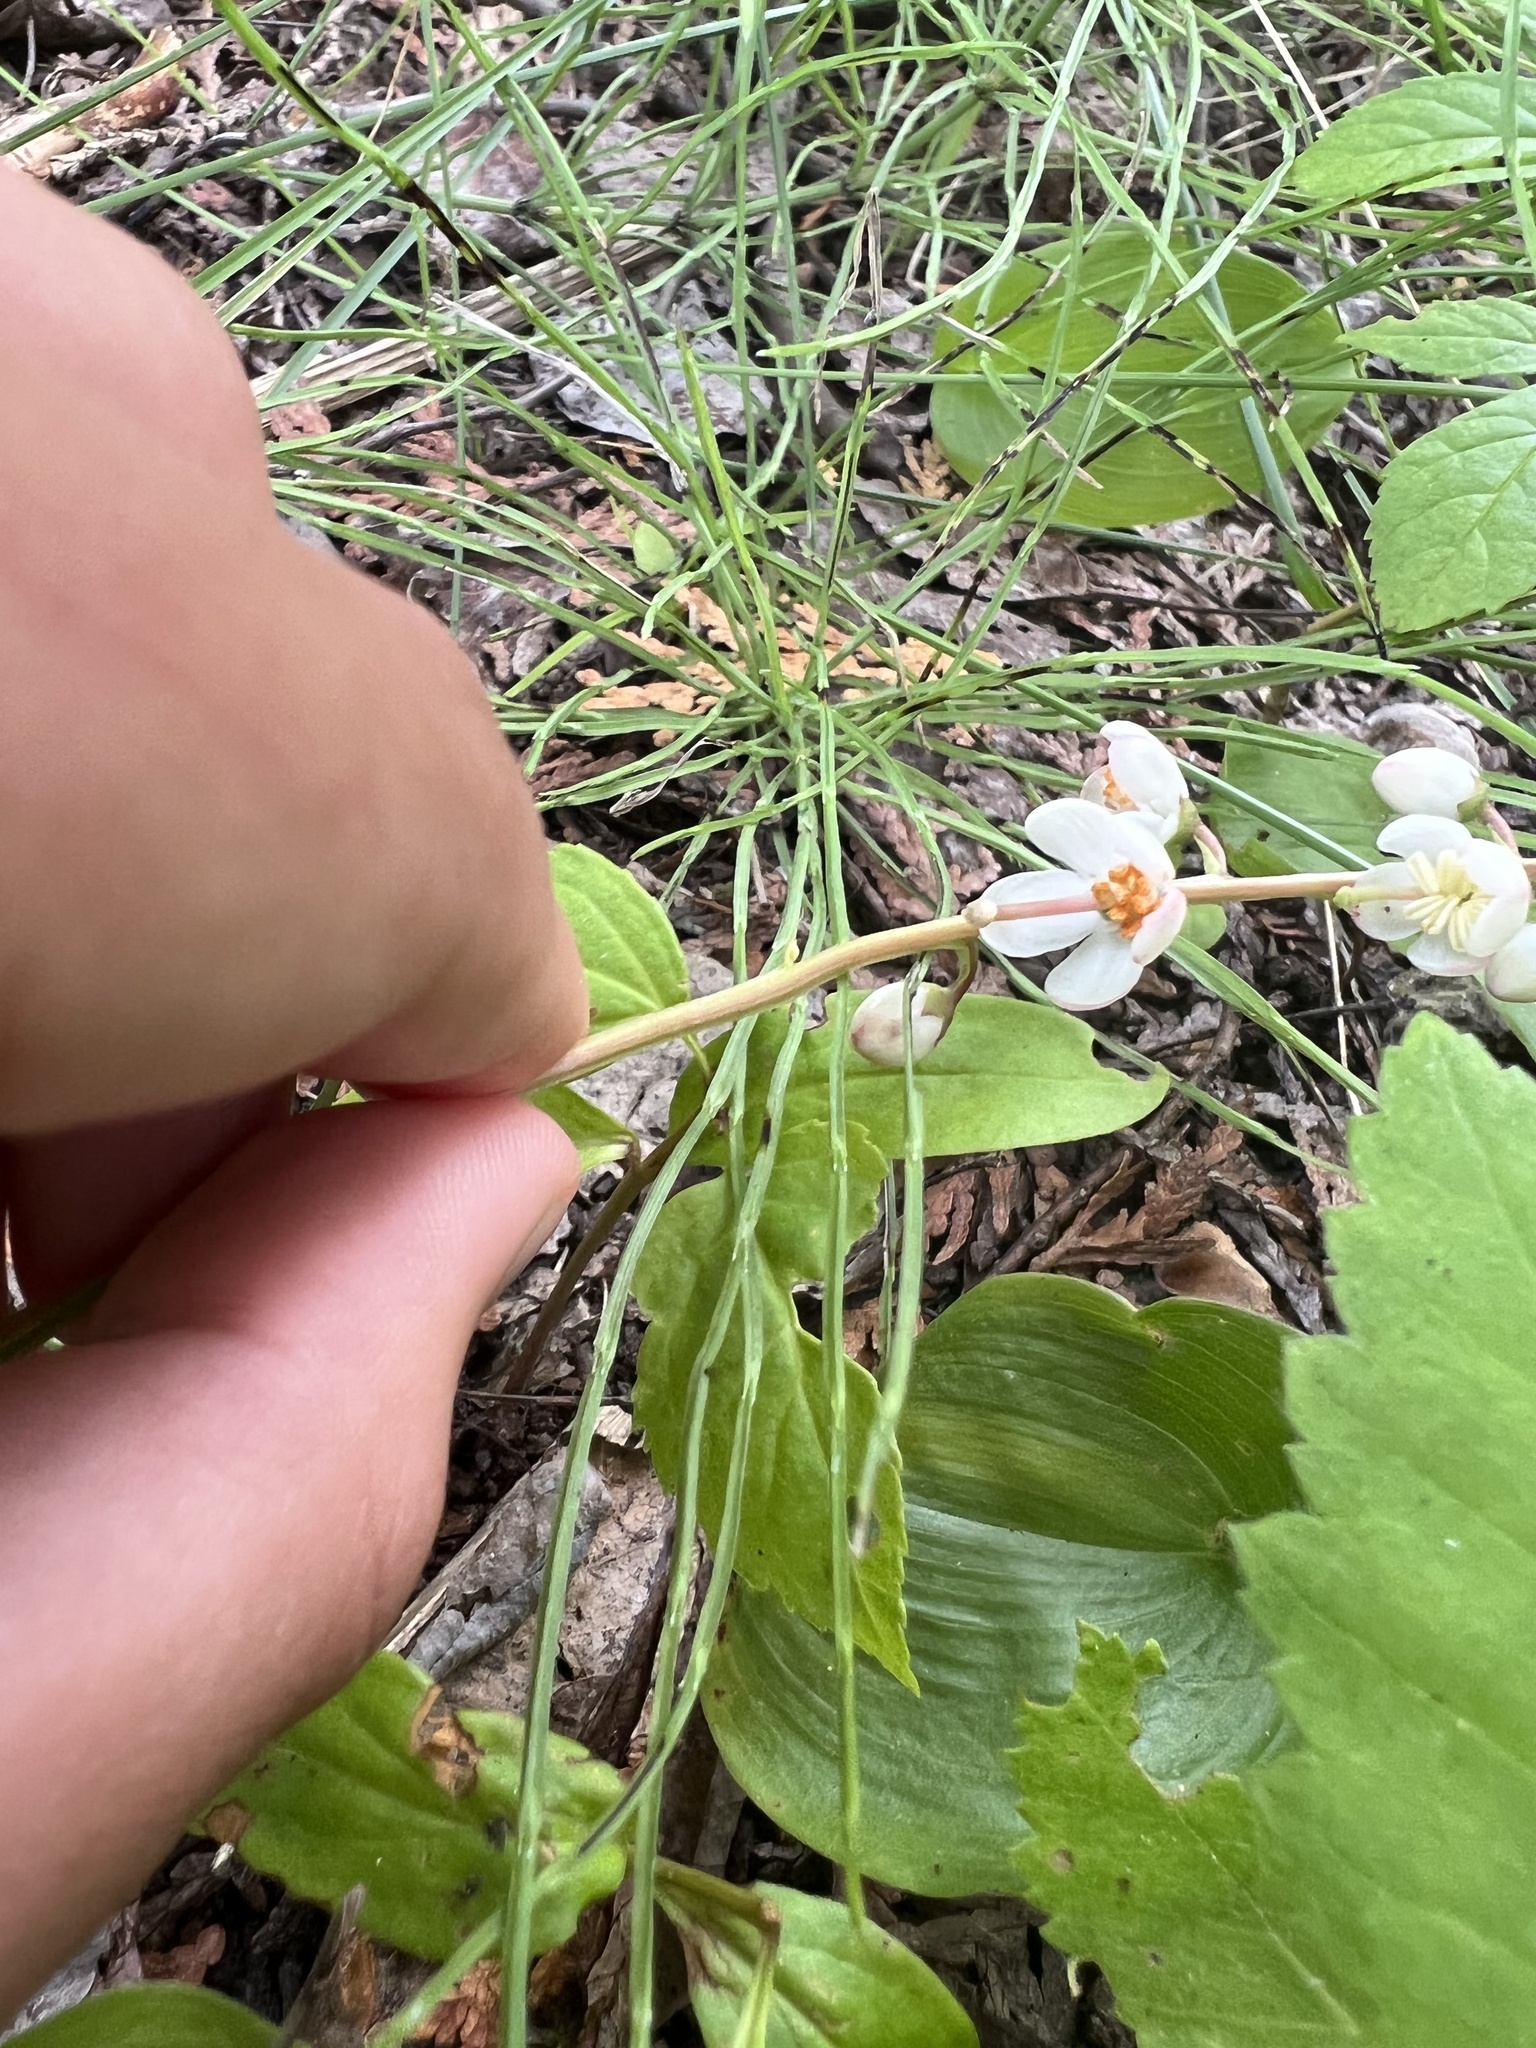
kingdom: Plantae
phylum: Tracheophyta
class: Magnoliopsida
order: Ericales
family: Ericaceae
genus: Pyrola
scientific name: Pyrola elliptica
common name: Shinleaf
